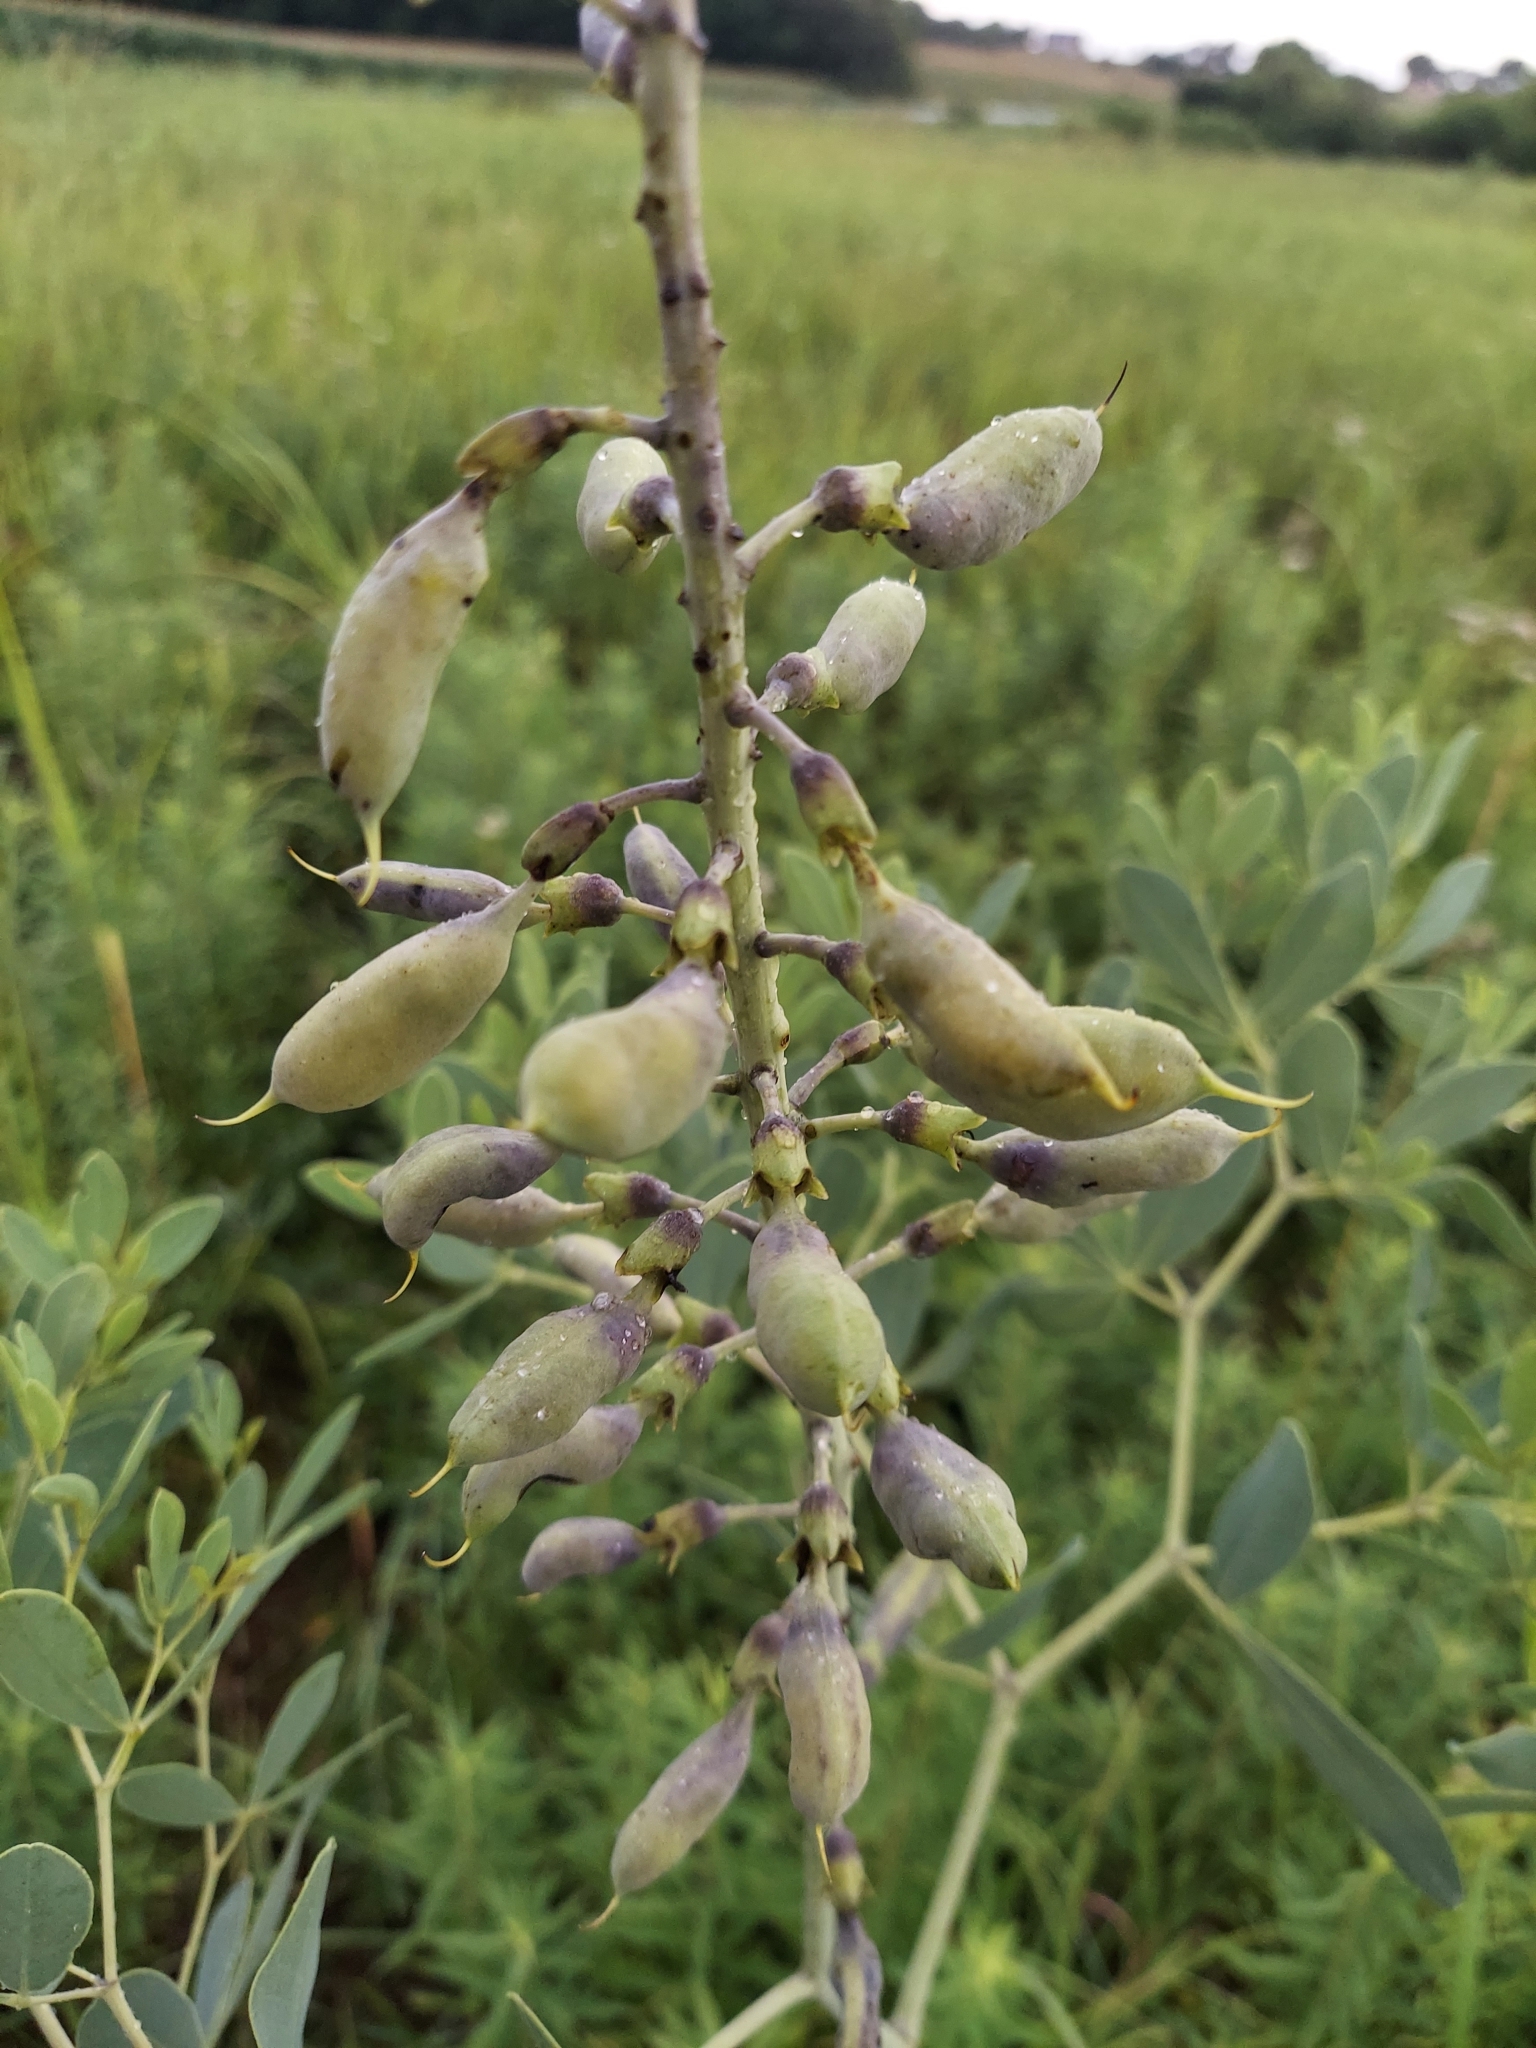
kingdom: Plantae
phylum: Tracheophyta
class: Magnoliopsida
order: Fabales
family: Fabaceae
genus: Baptisia
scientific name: Baptisia alba
